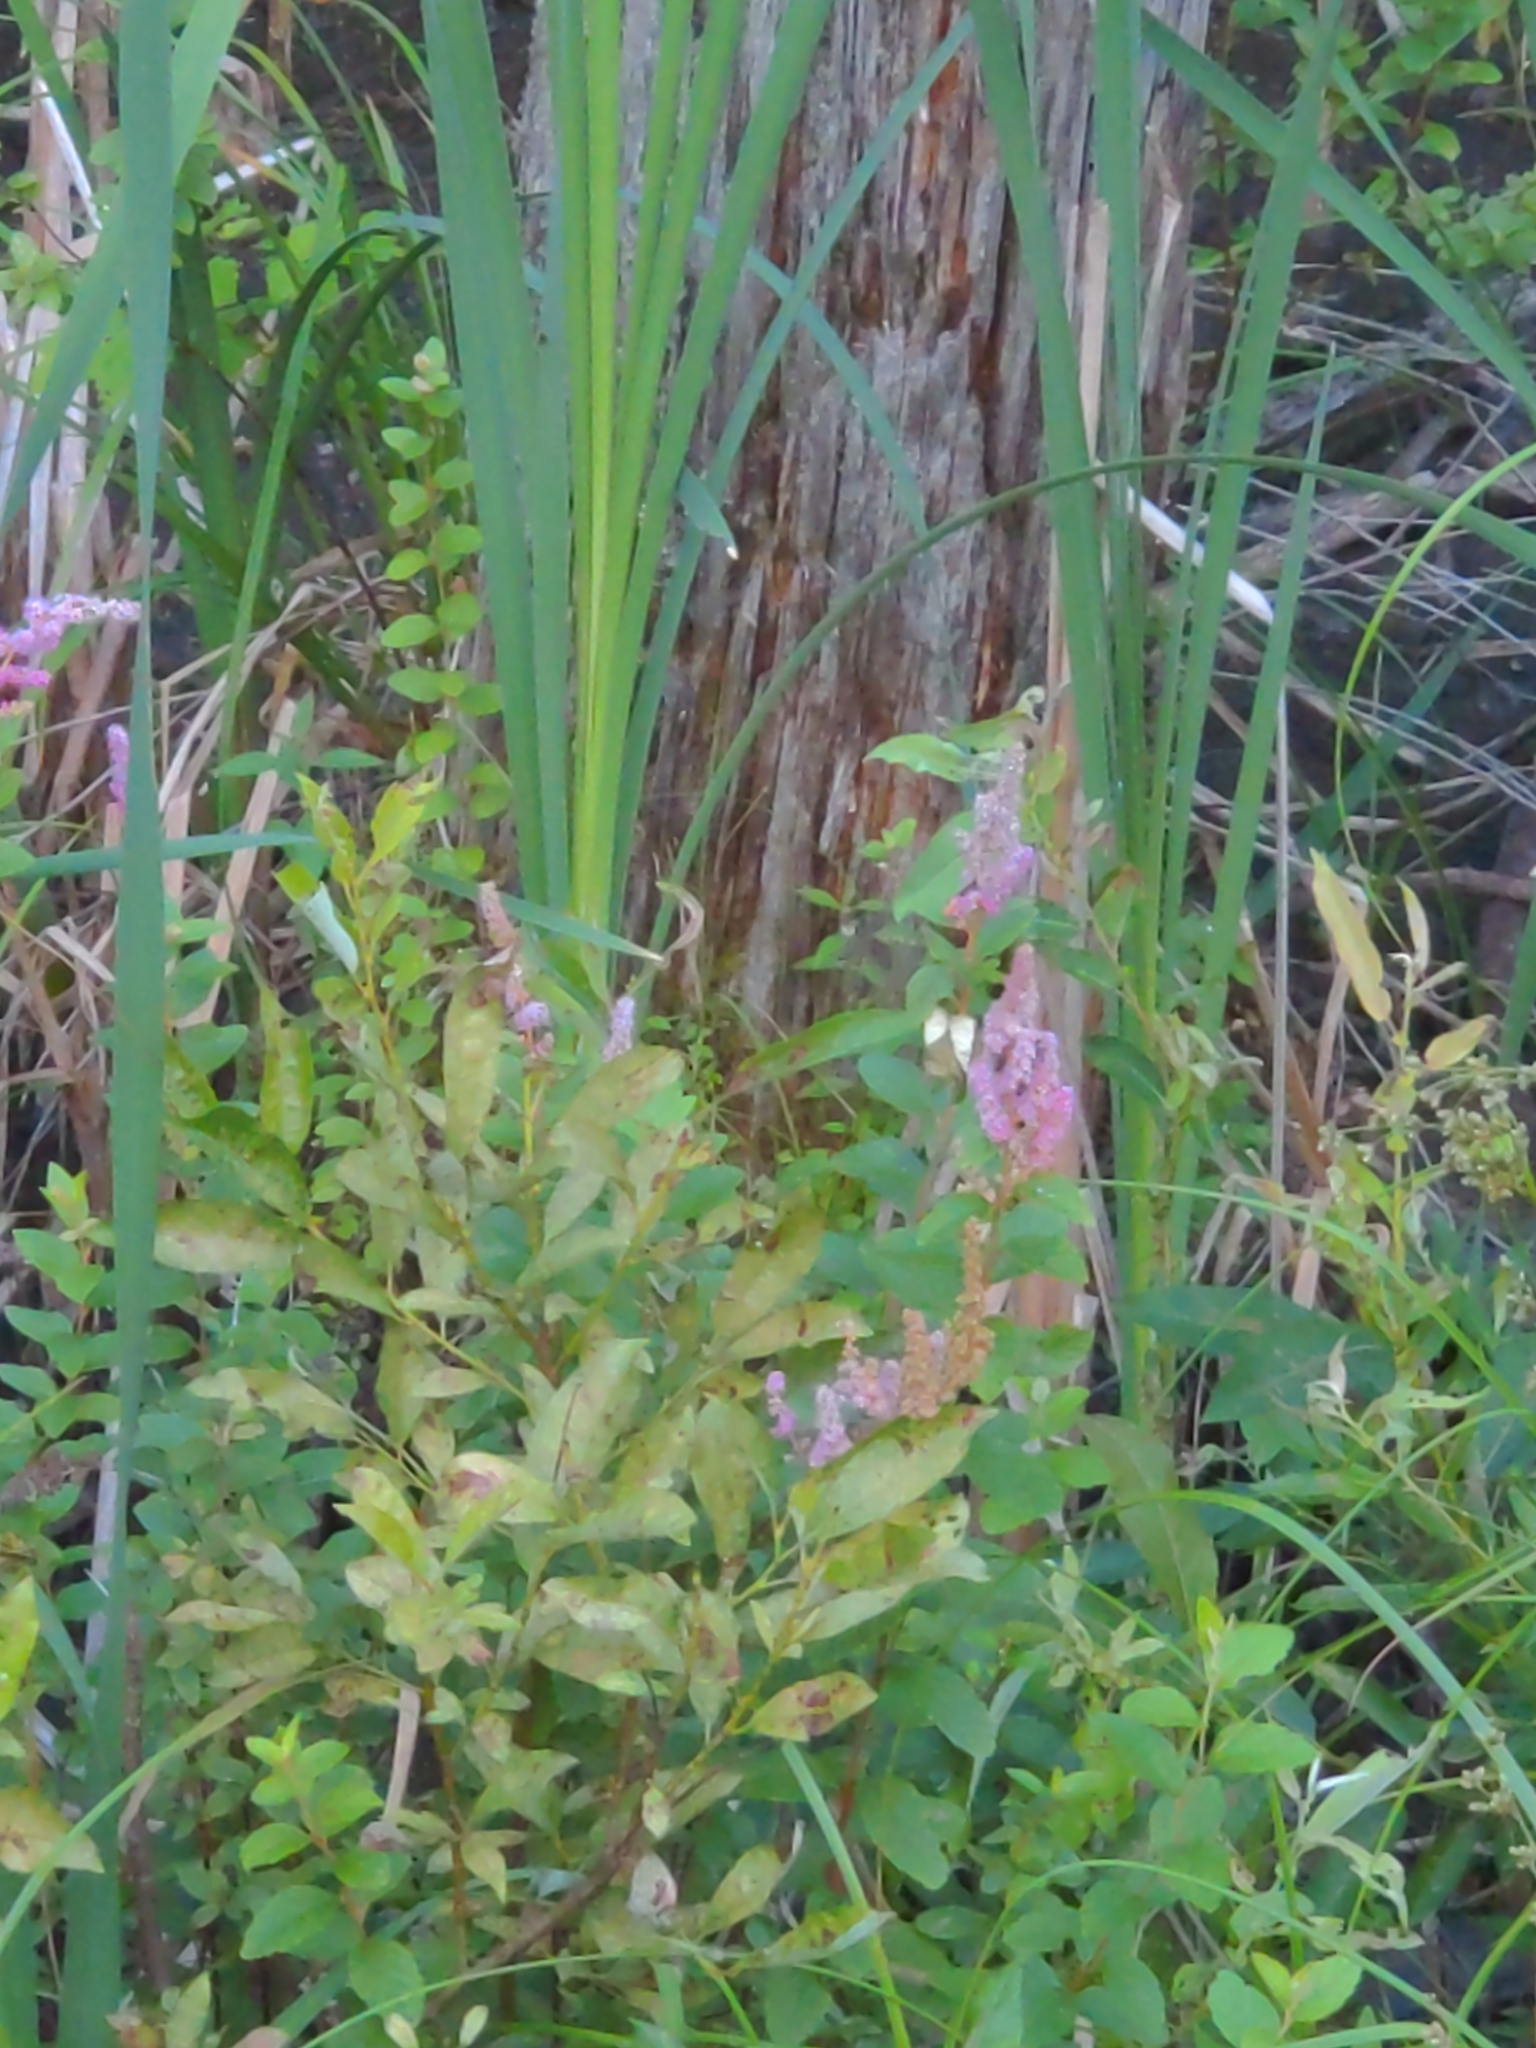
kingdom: Plantae
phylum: Tracheophyta
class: Magnoliopsida
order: Rosales
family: Rosaceae
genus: Spiraea
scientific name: Spiraea tomentosa
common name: Hardhack
